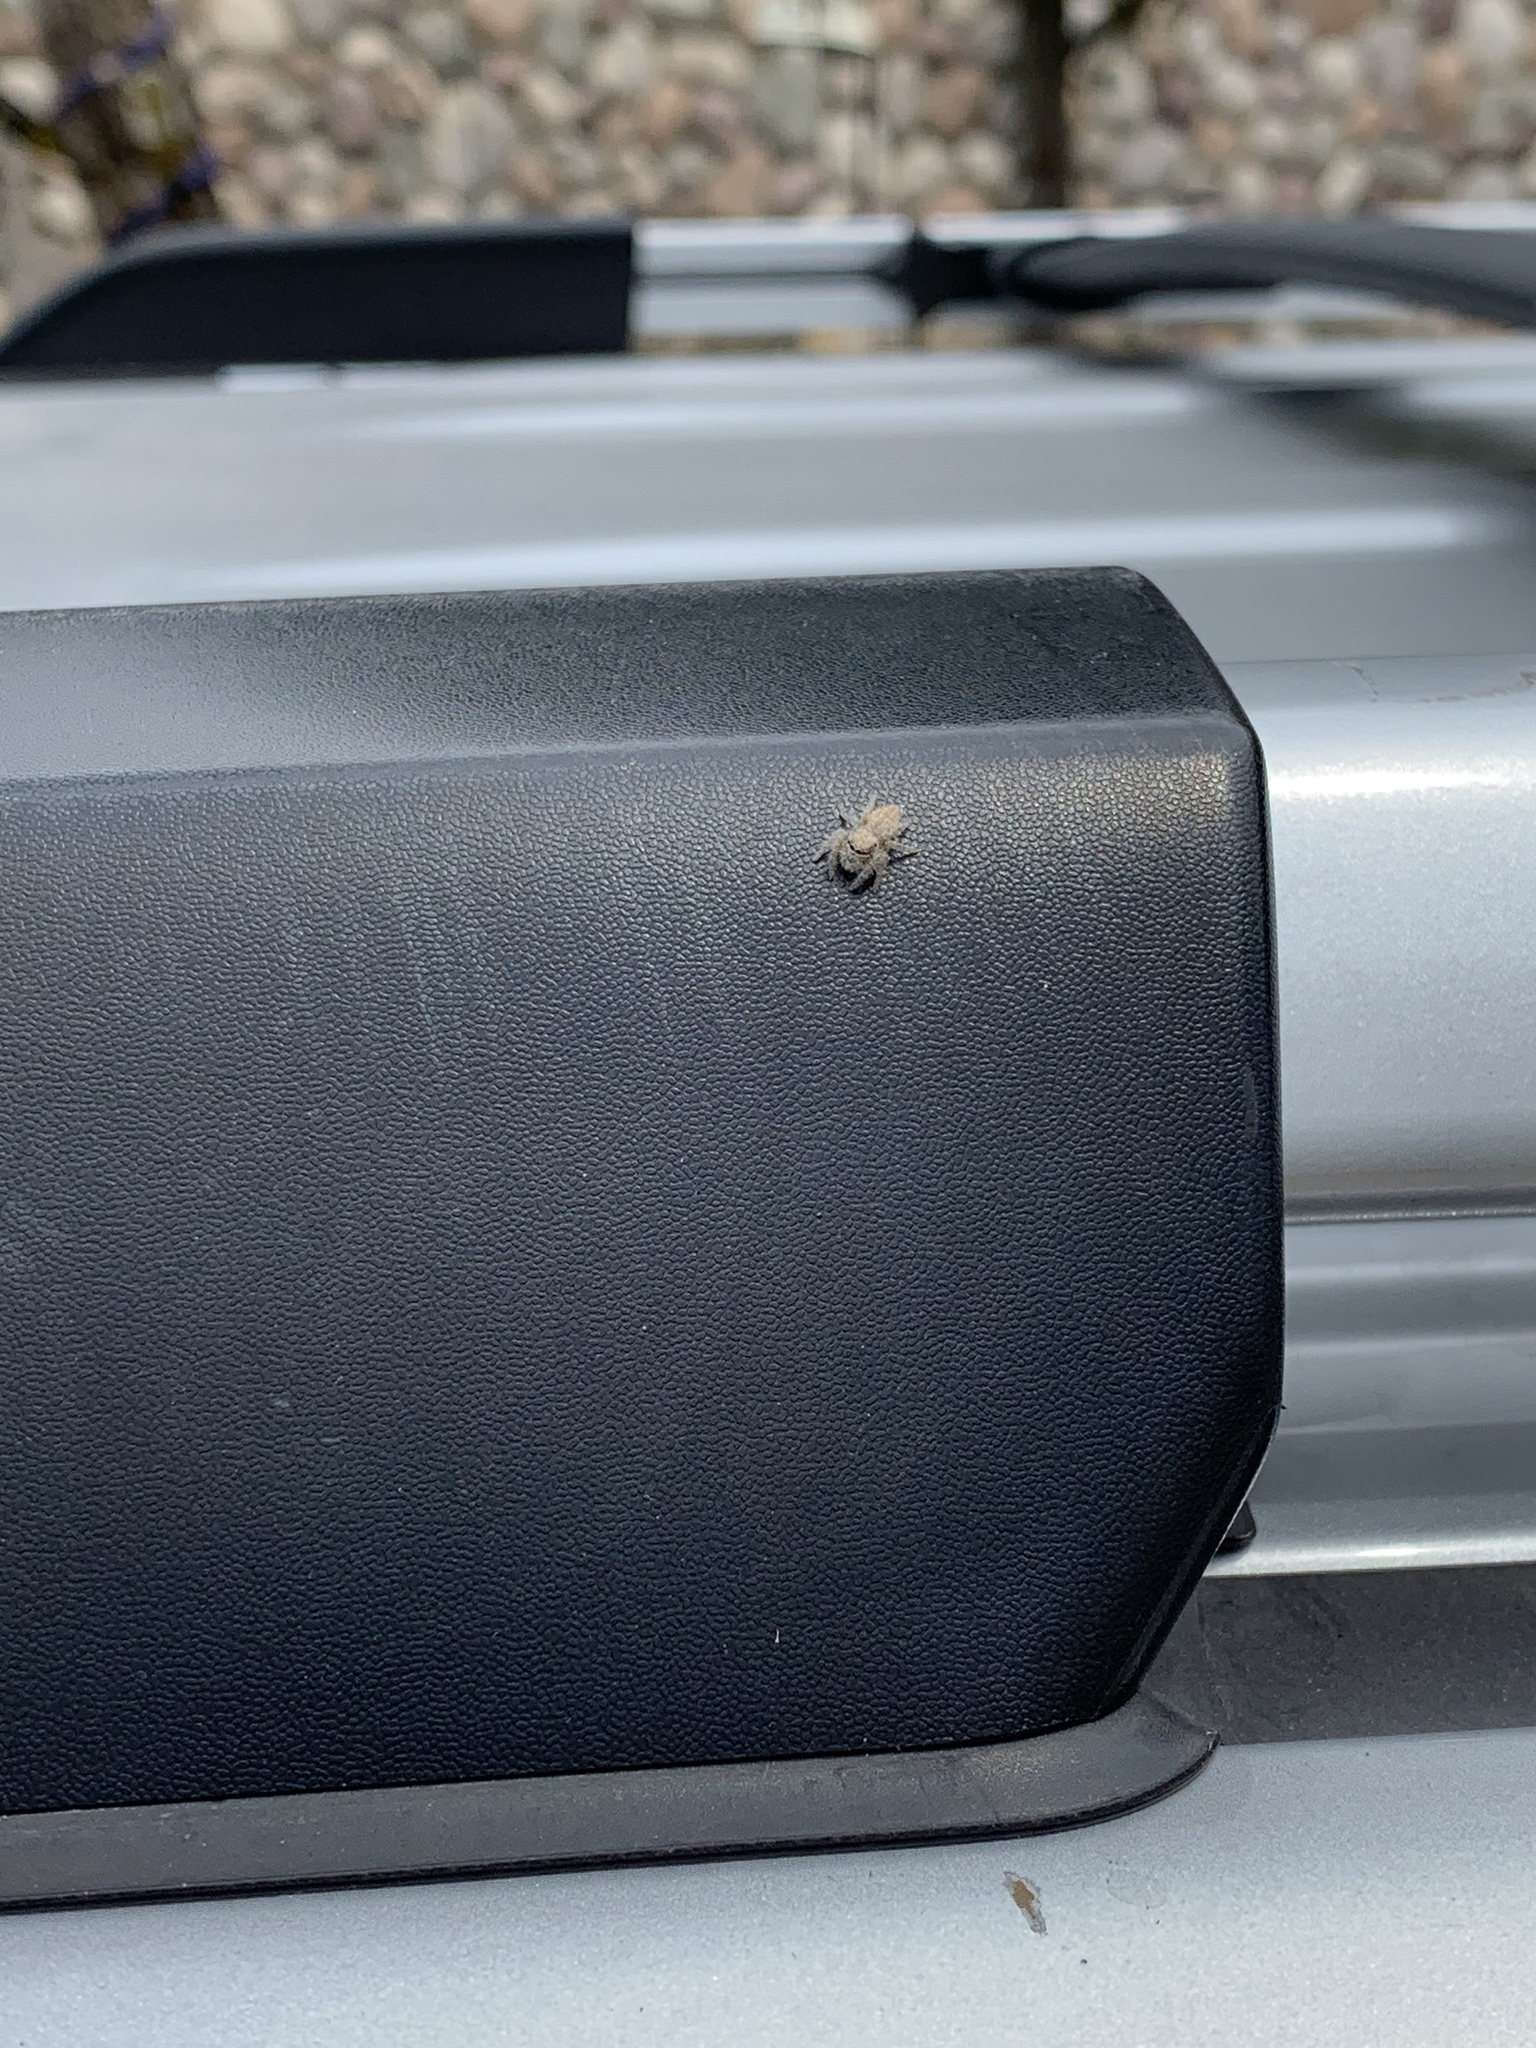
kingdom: Animalia
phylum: Arthropoda
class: Arachnida
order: Araneae
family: Salticidae
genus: Phidippus
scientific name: Phidippus octopunctatus
